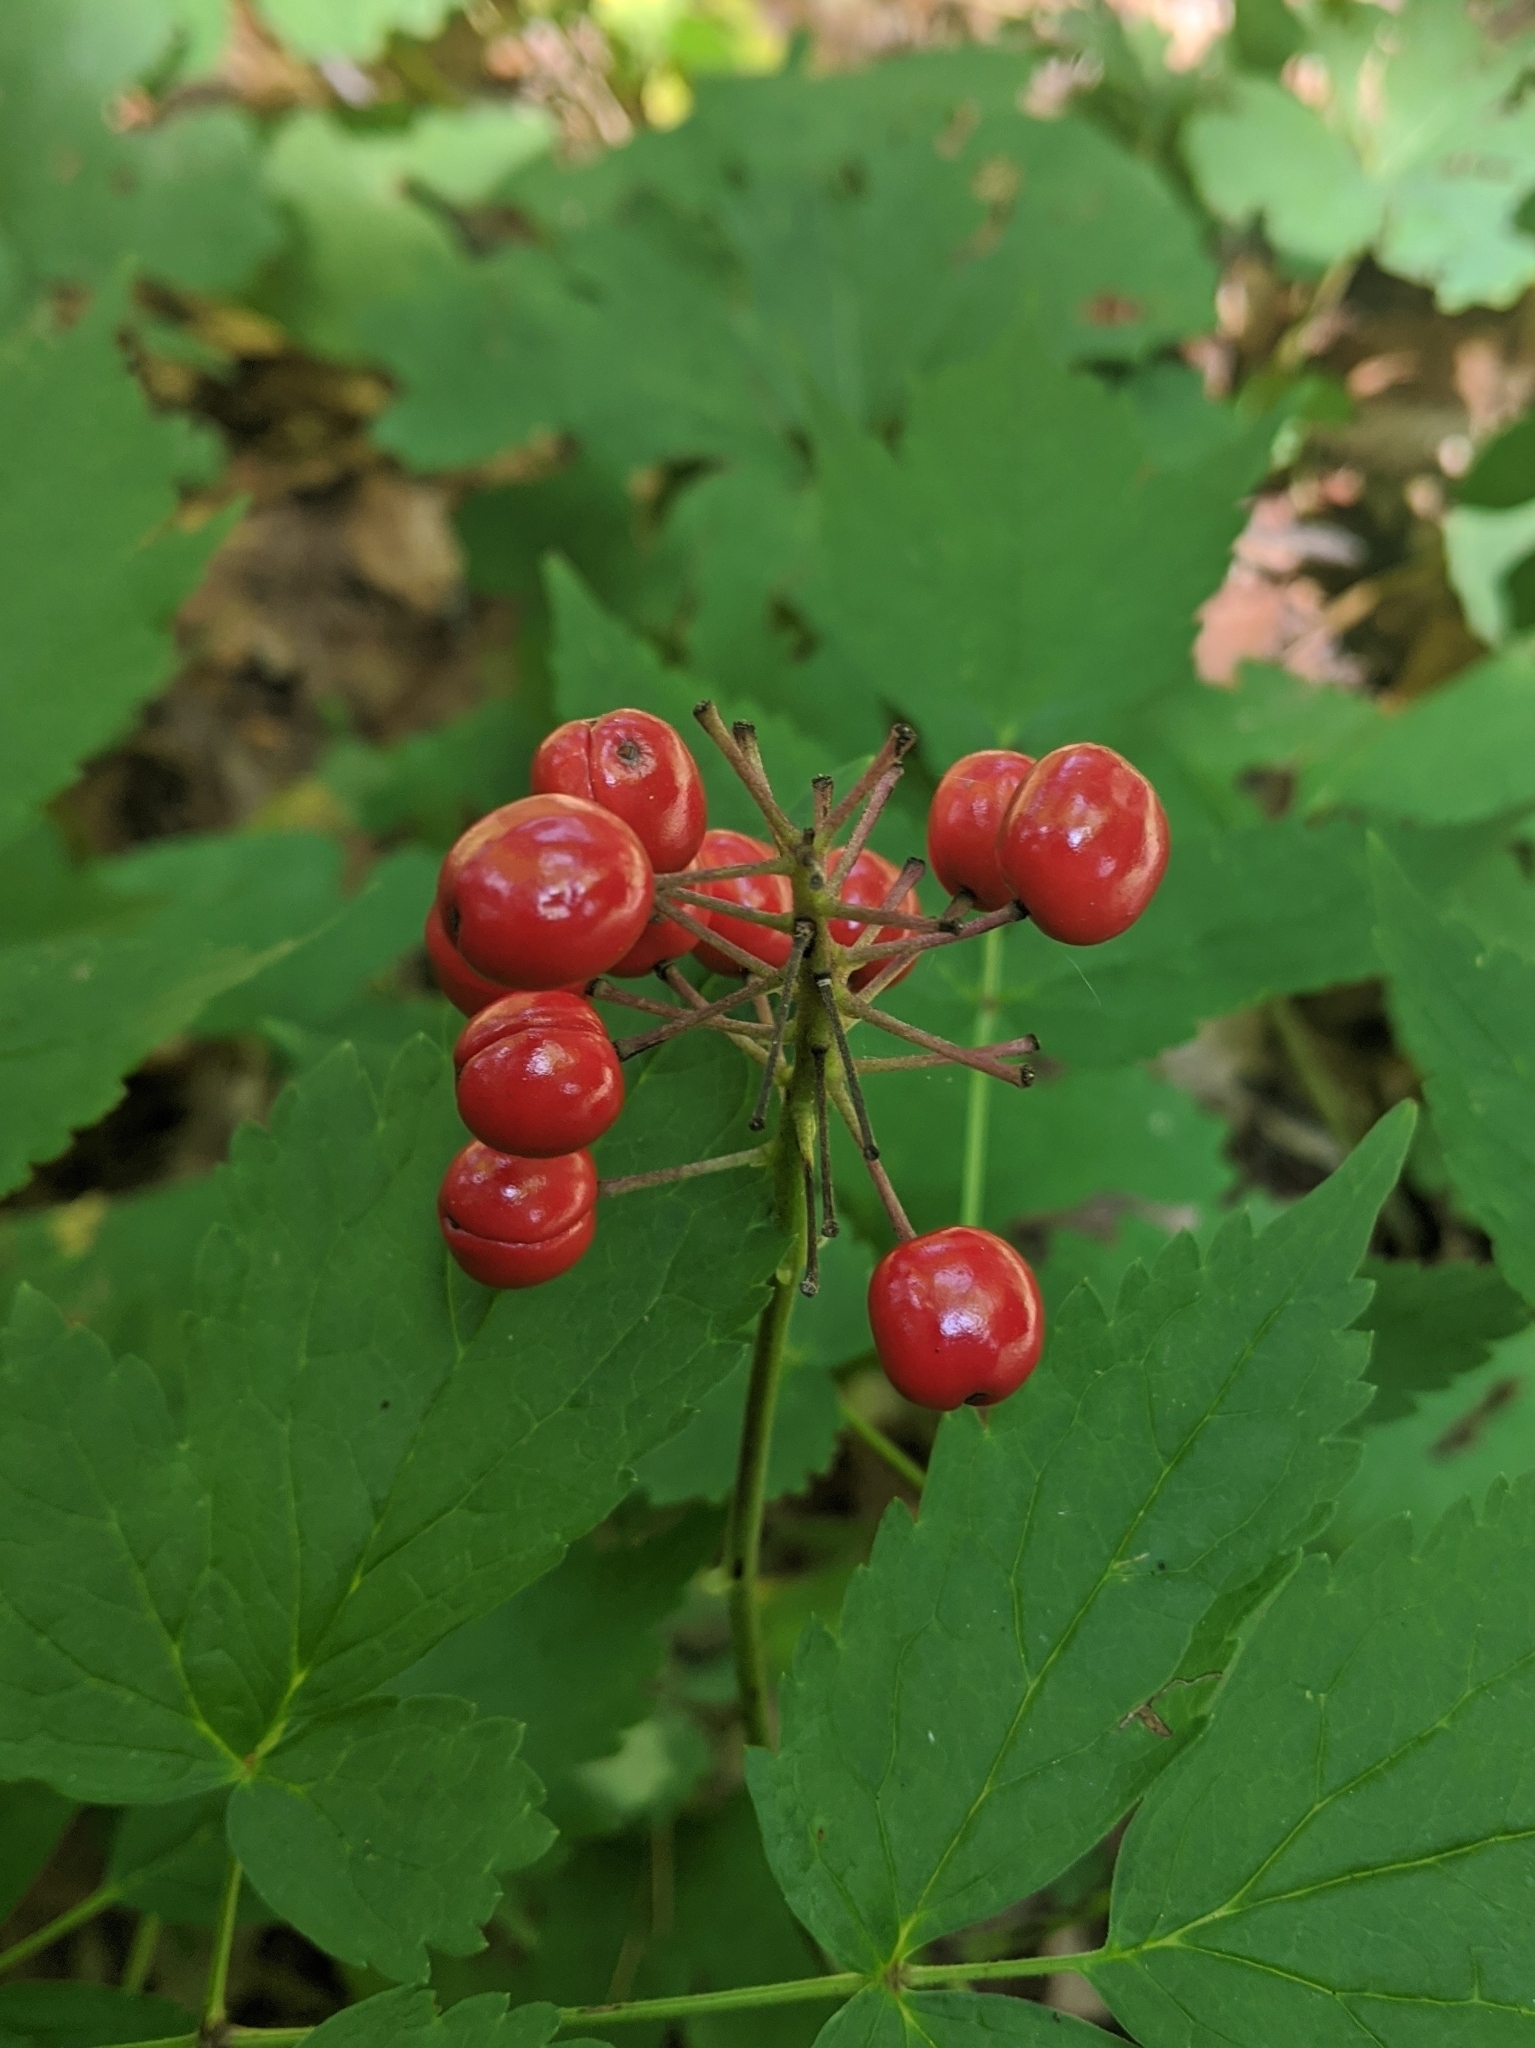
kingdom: Plantae
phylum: Tracheophyta
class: Magnoliopsida
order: Ranunculales
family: Ranunculaceae
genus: Actaea
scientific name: Actaea rubra
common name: Red baneberry
